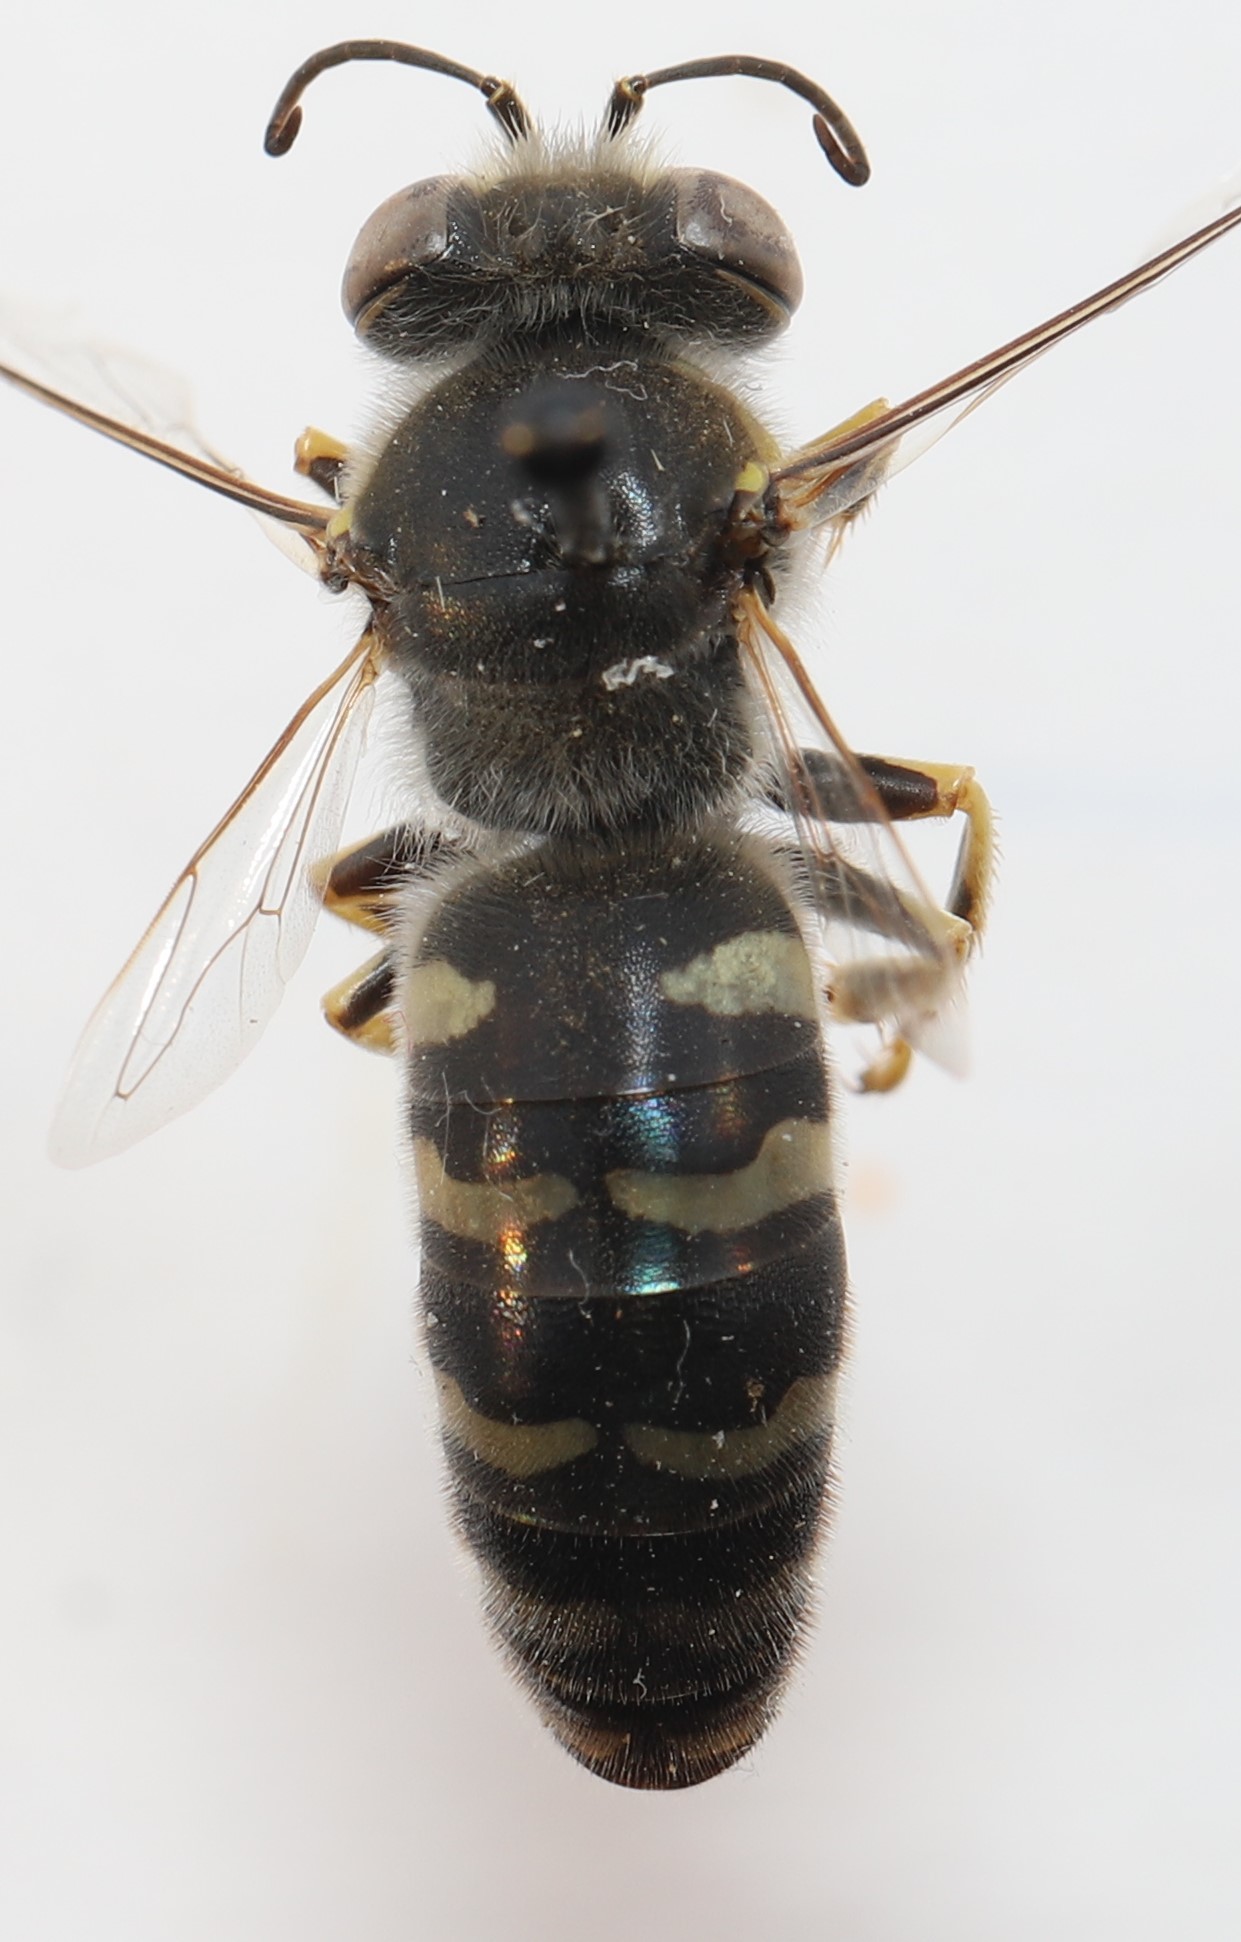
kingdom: Animalia
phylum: Arthropoda
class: Insecta
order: Hymenoptera
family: Crabronidae
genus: Bembix
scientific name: Bembix americana
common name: American sand wasp
